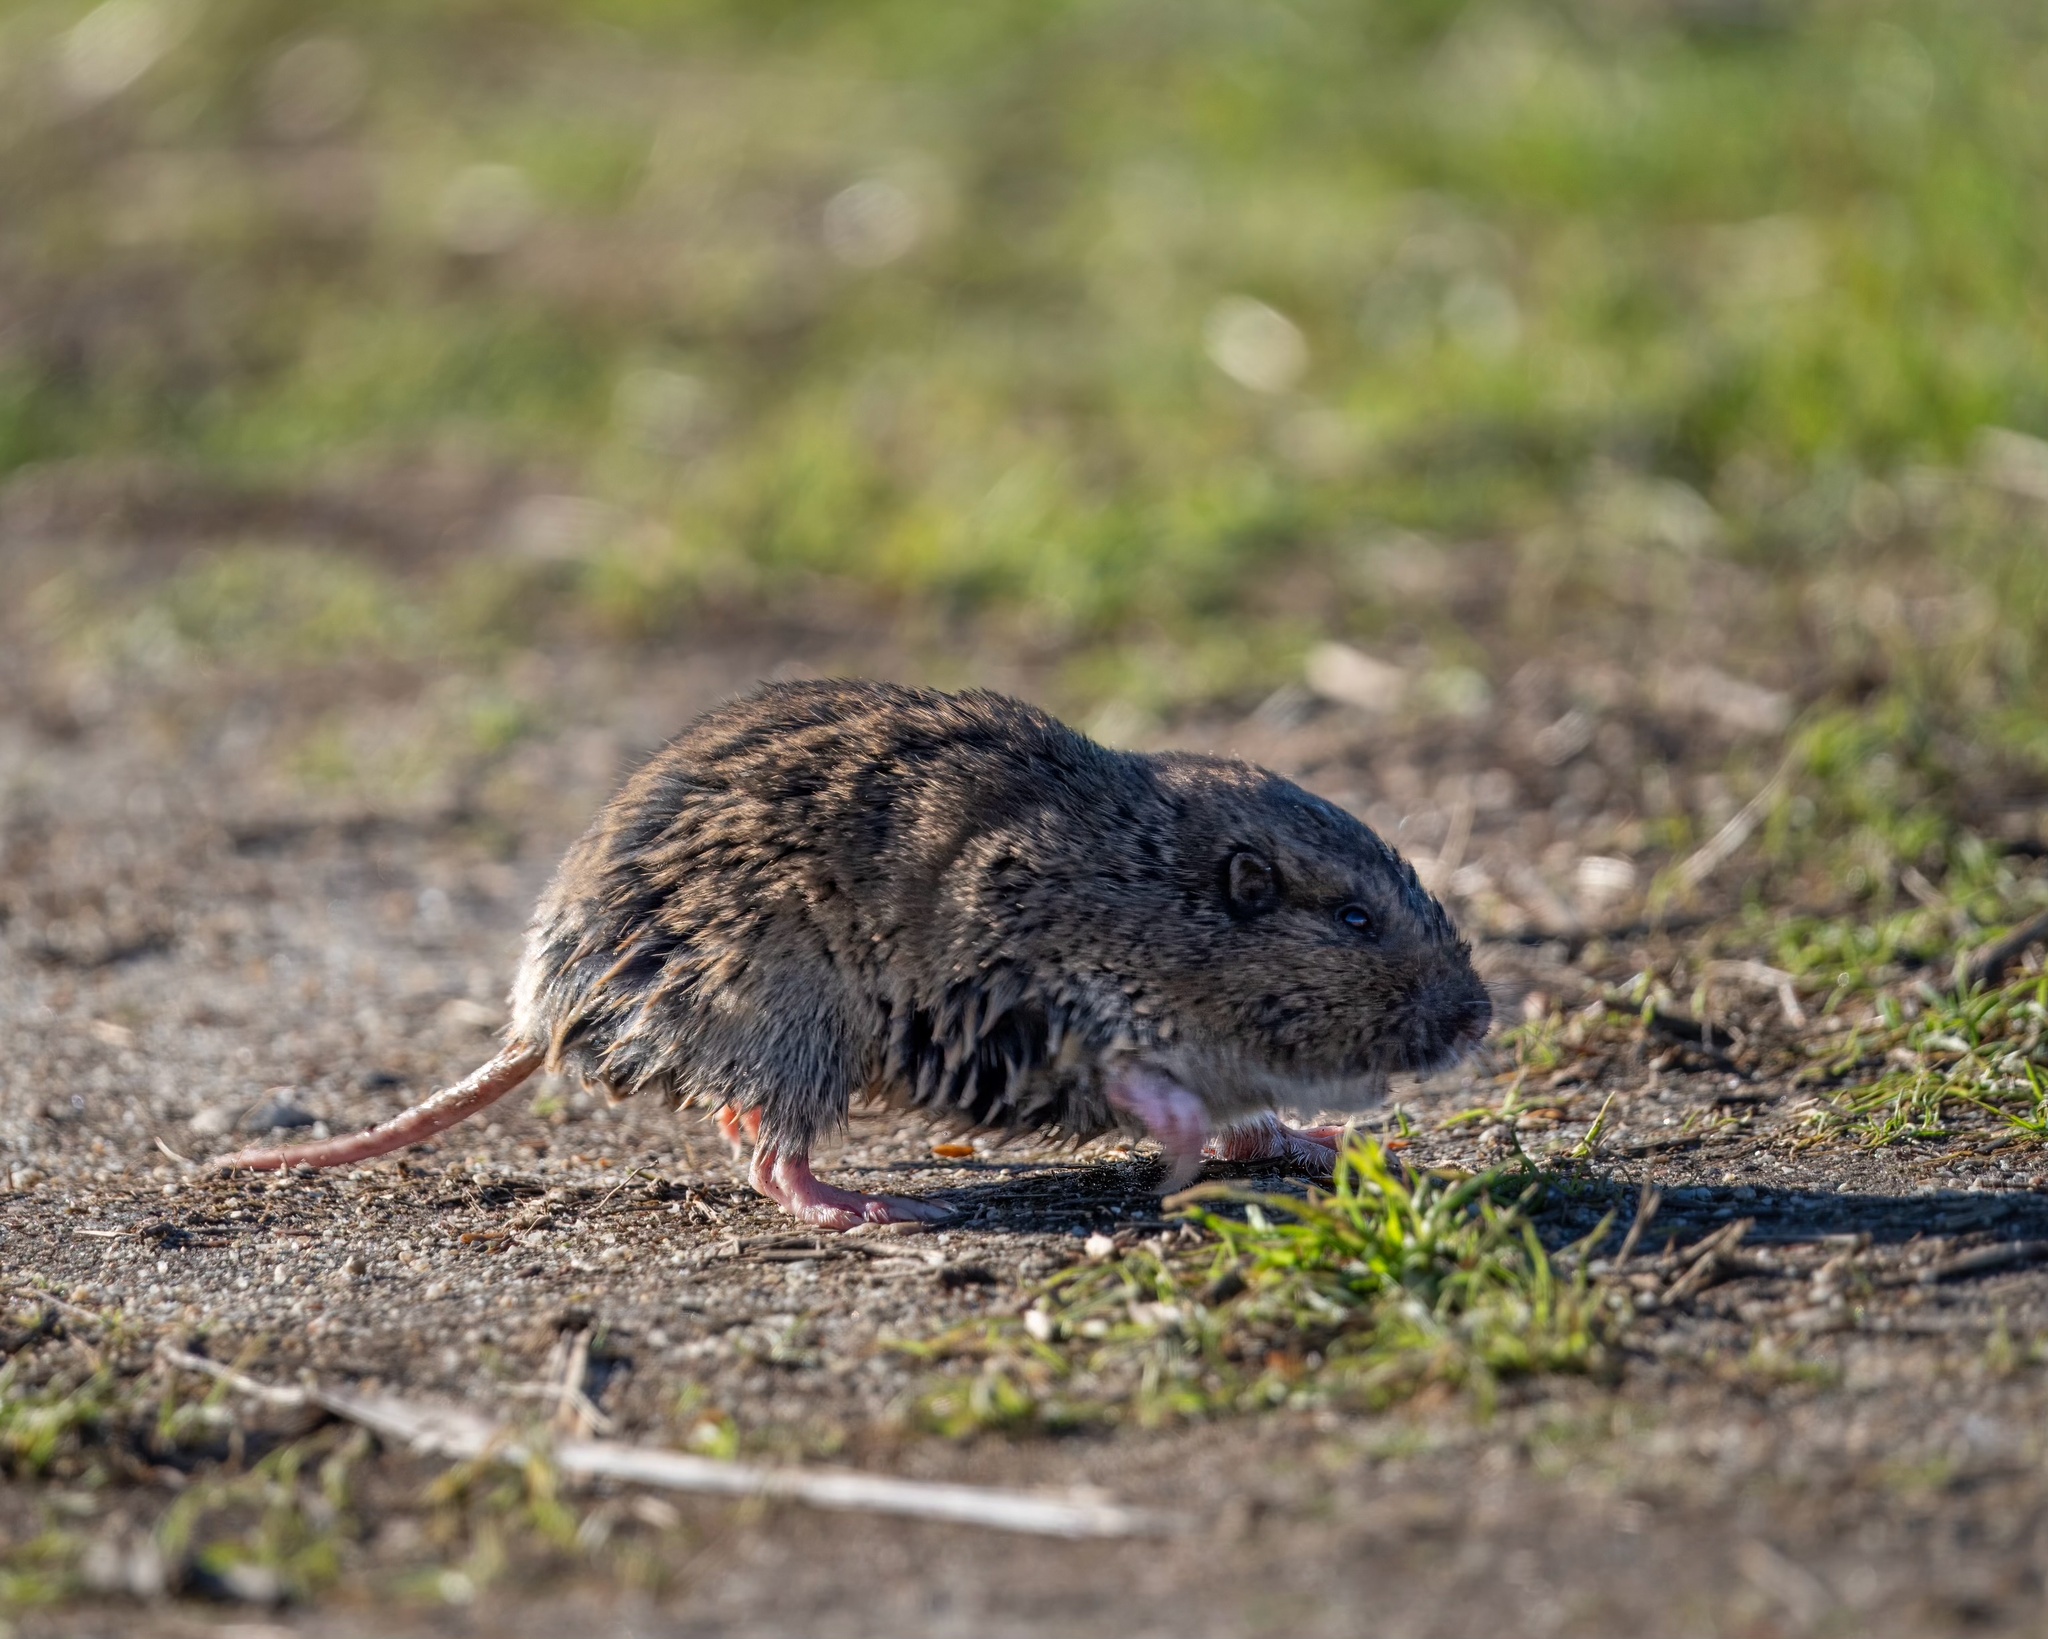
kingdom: Animalia
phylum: Chordata
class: Mammalia
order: Rodentia
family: Geomyidae
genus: Thomomys
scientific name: Thomomys bottae
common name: Botta's pocket gopher
